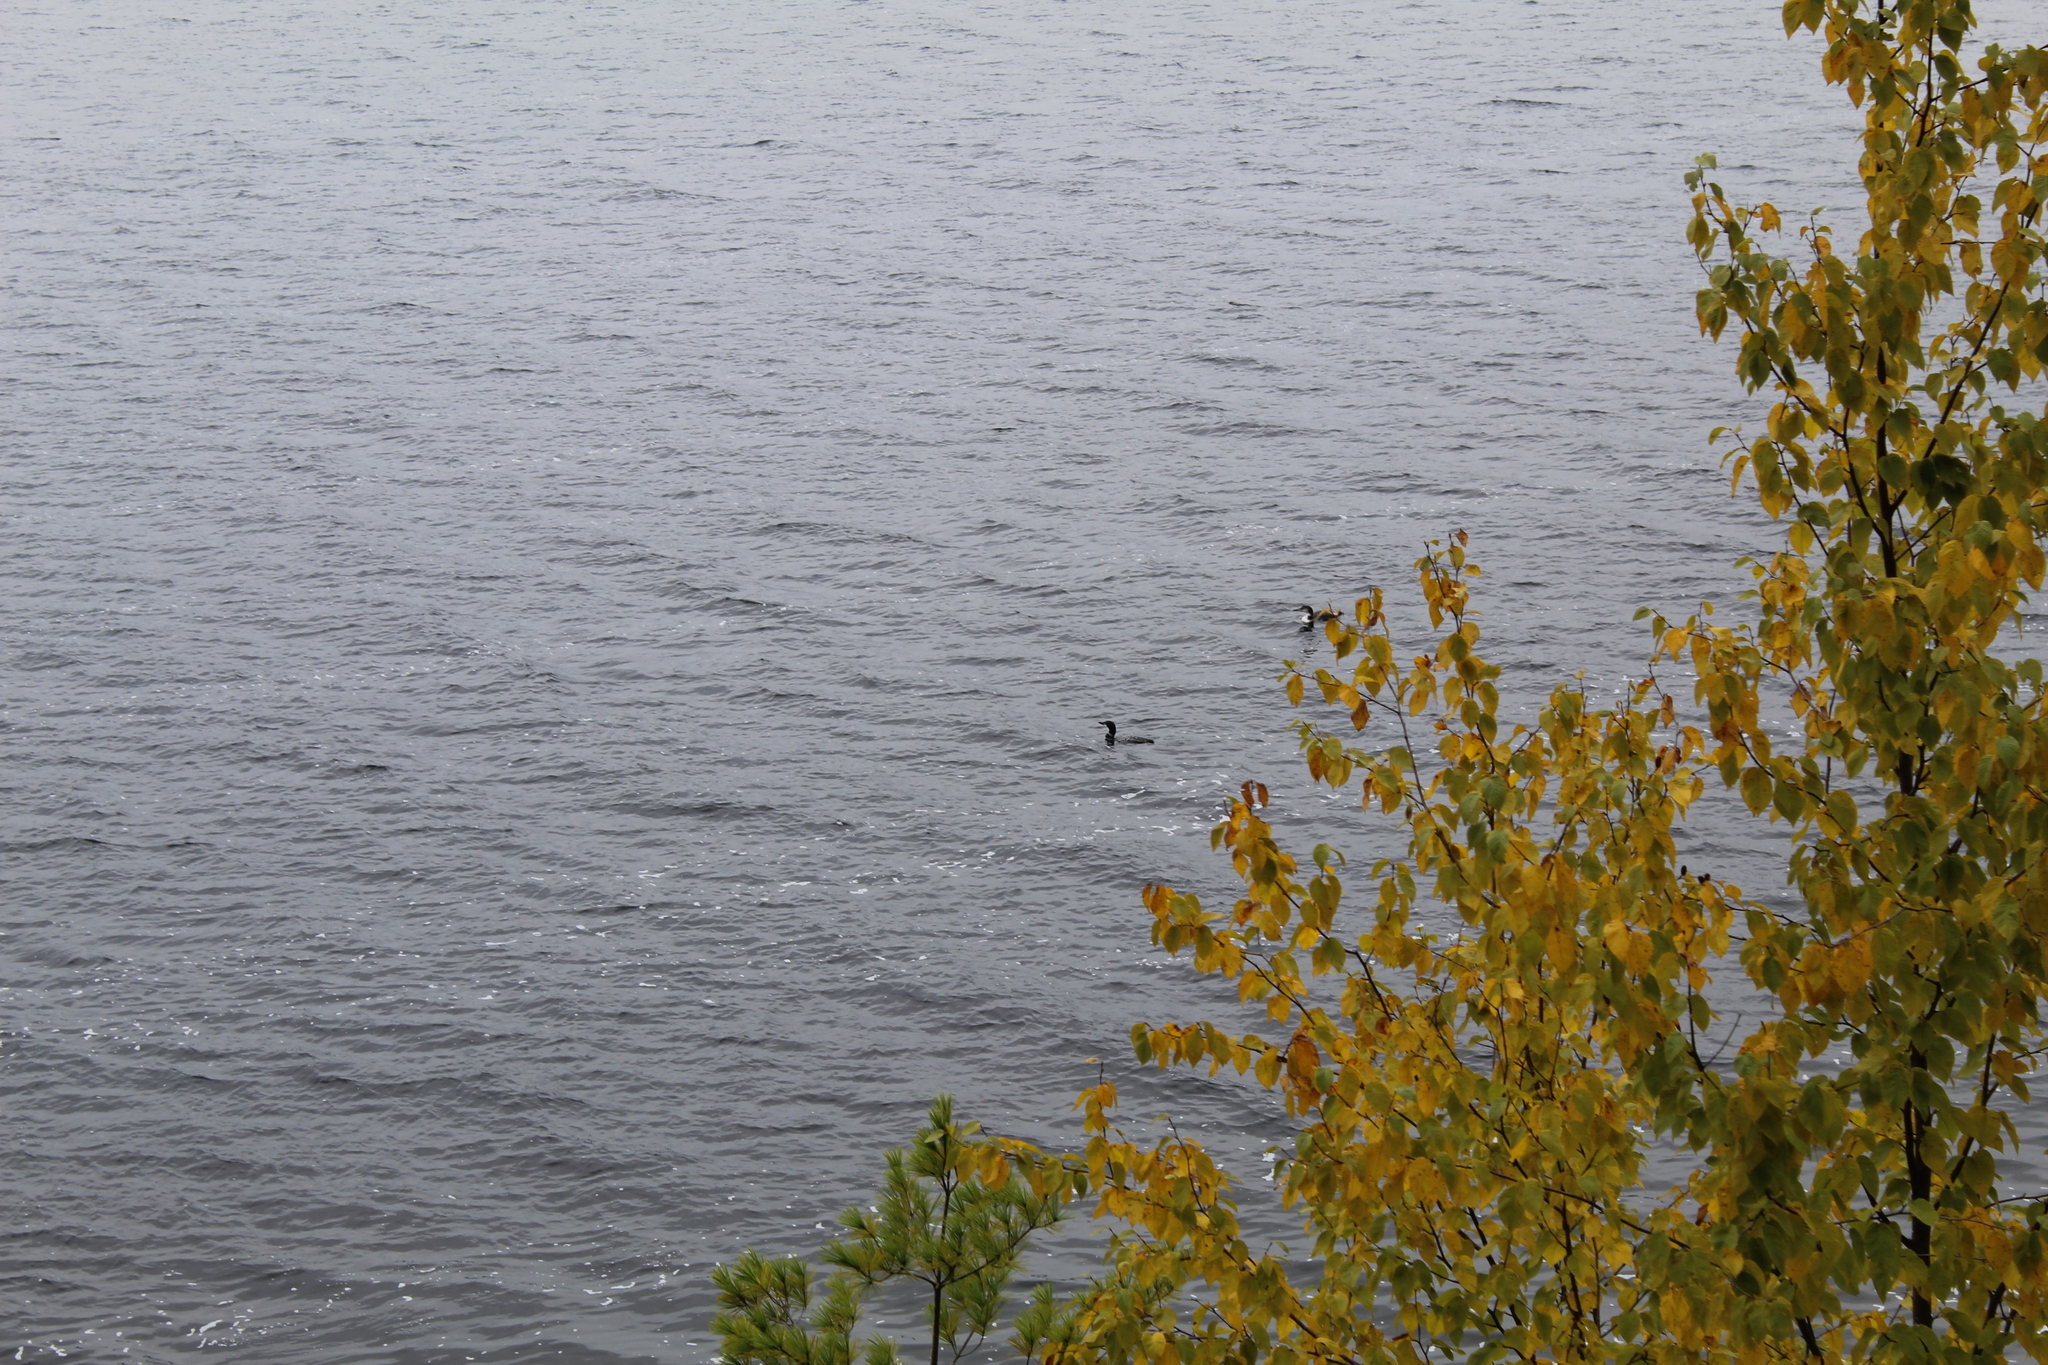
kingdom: Animalia
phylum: Chordata
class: Aves
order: Gaviiformes
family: Gaviidae
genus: Gavia
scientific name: Gavia immer
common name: Common loon
